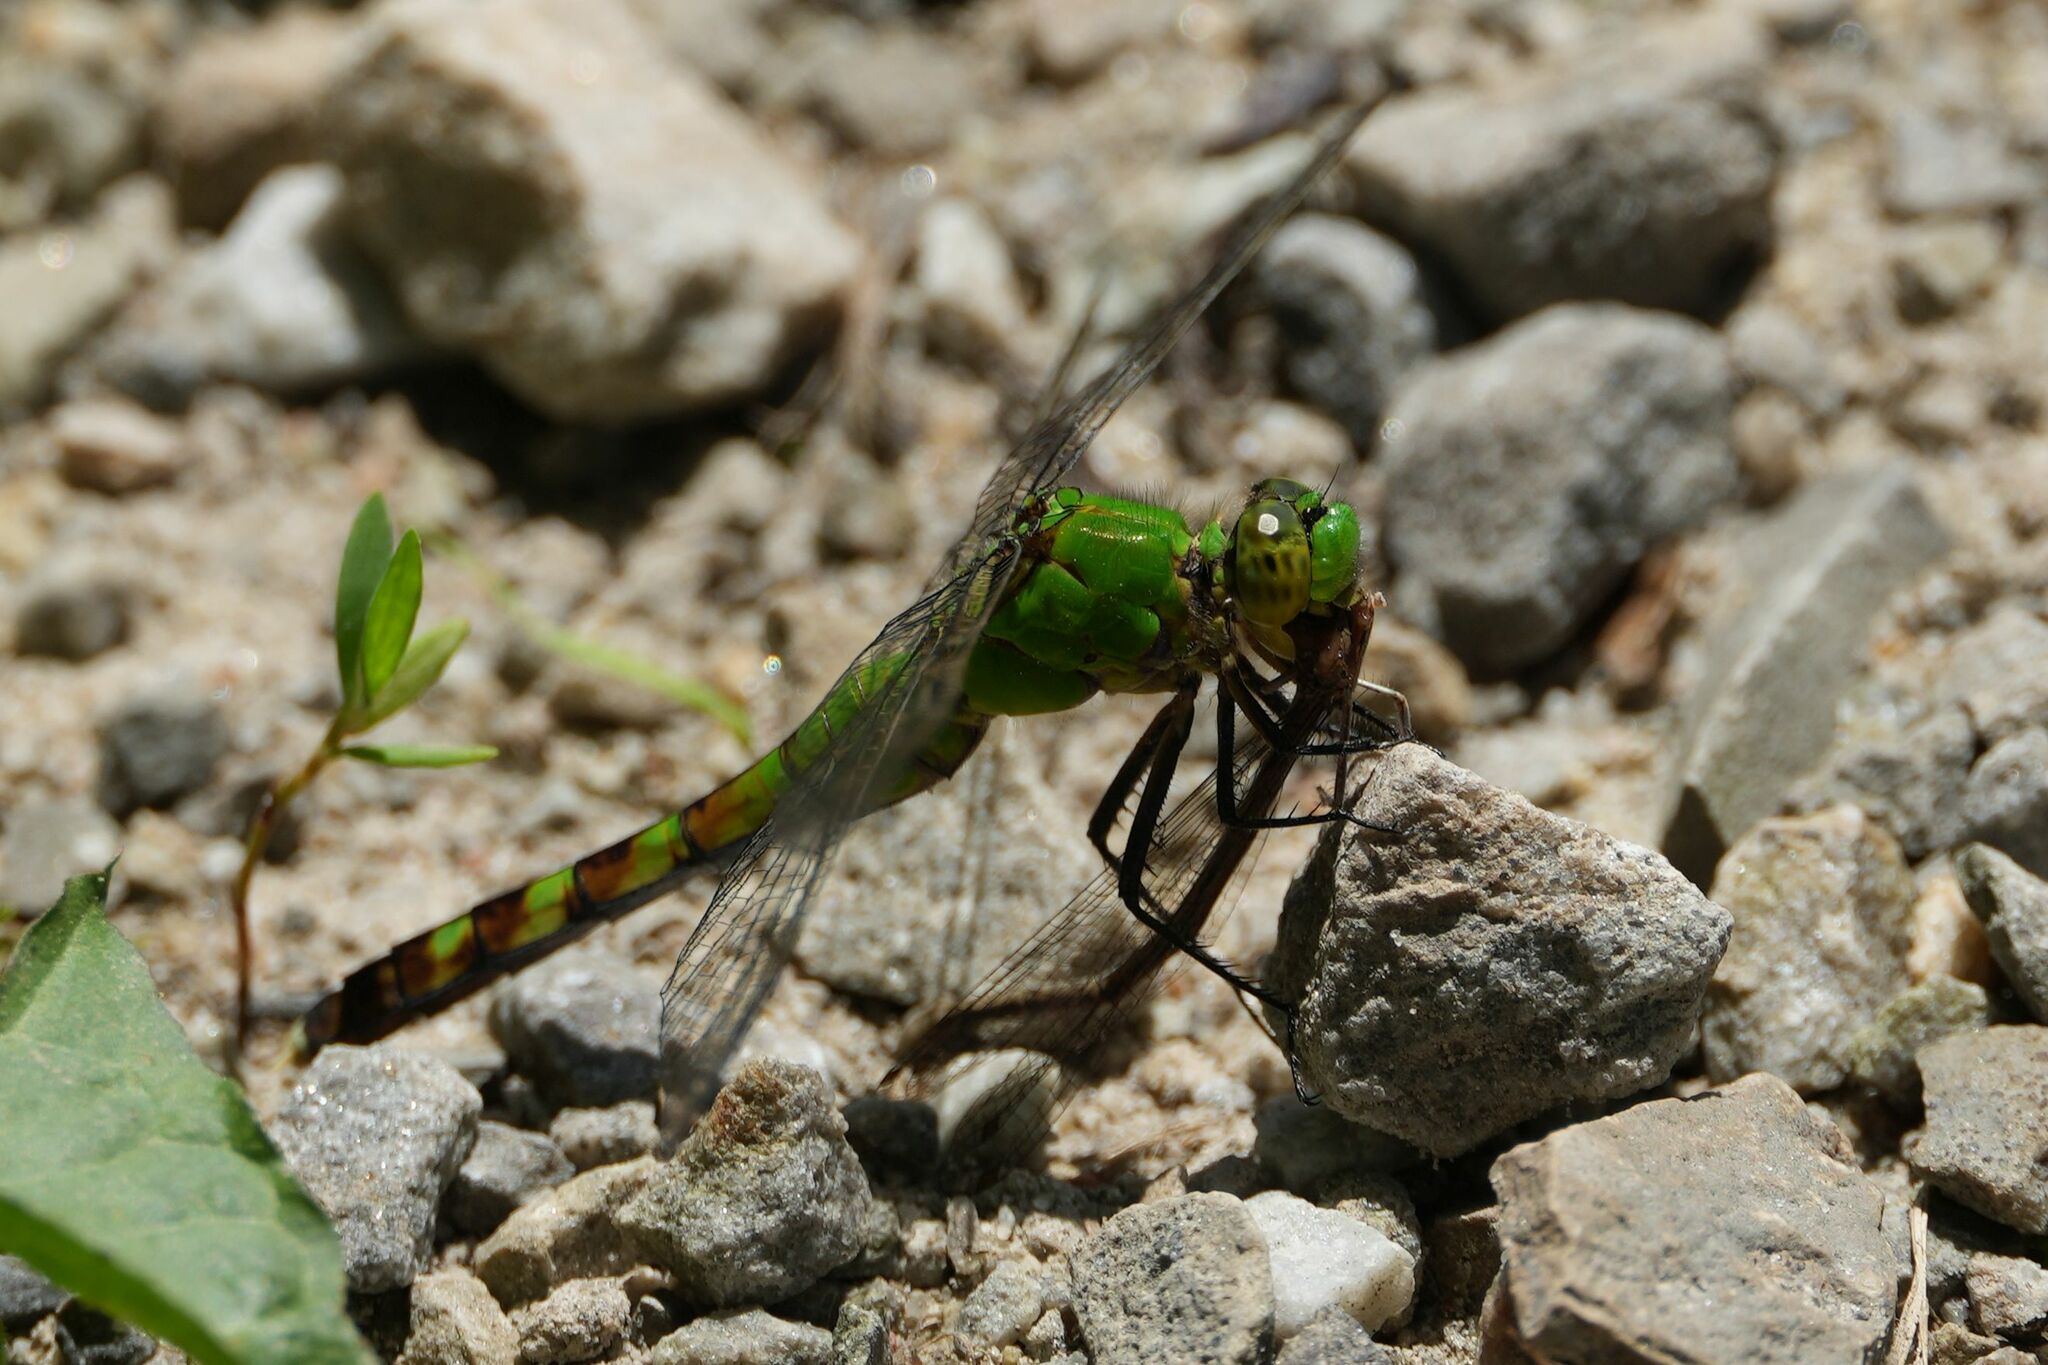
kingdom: Animalia
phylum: Arthropoda
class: Insecta
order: Odonata
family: Libellulidae
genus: Erythemis
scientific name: Erythemis simplicicollis
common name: Eastern pondhawk
